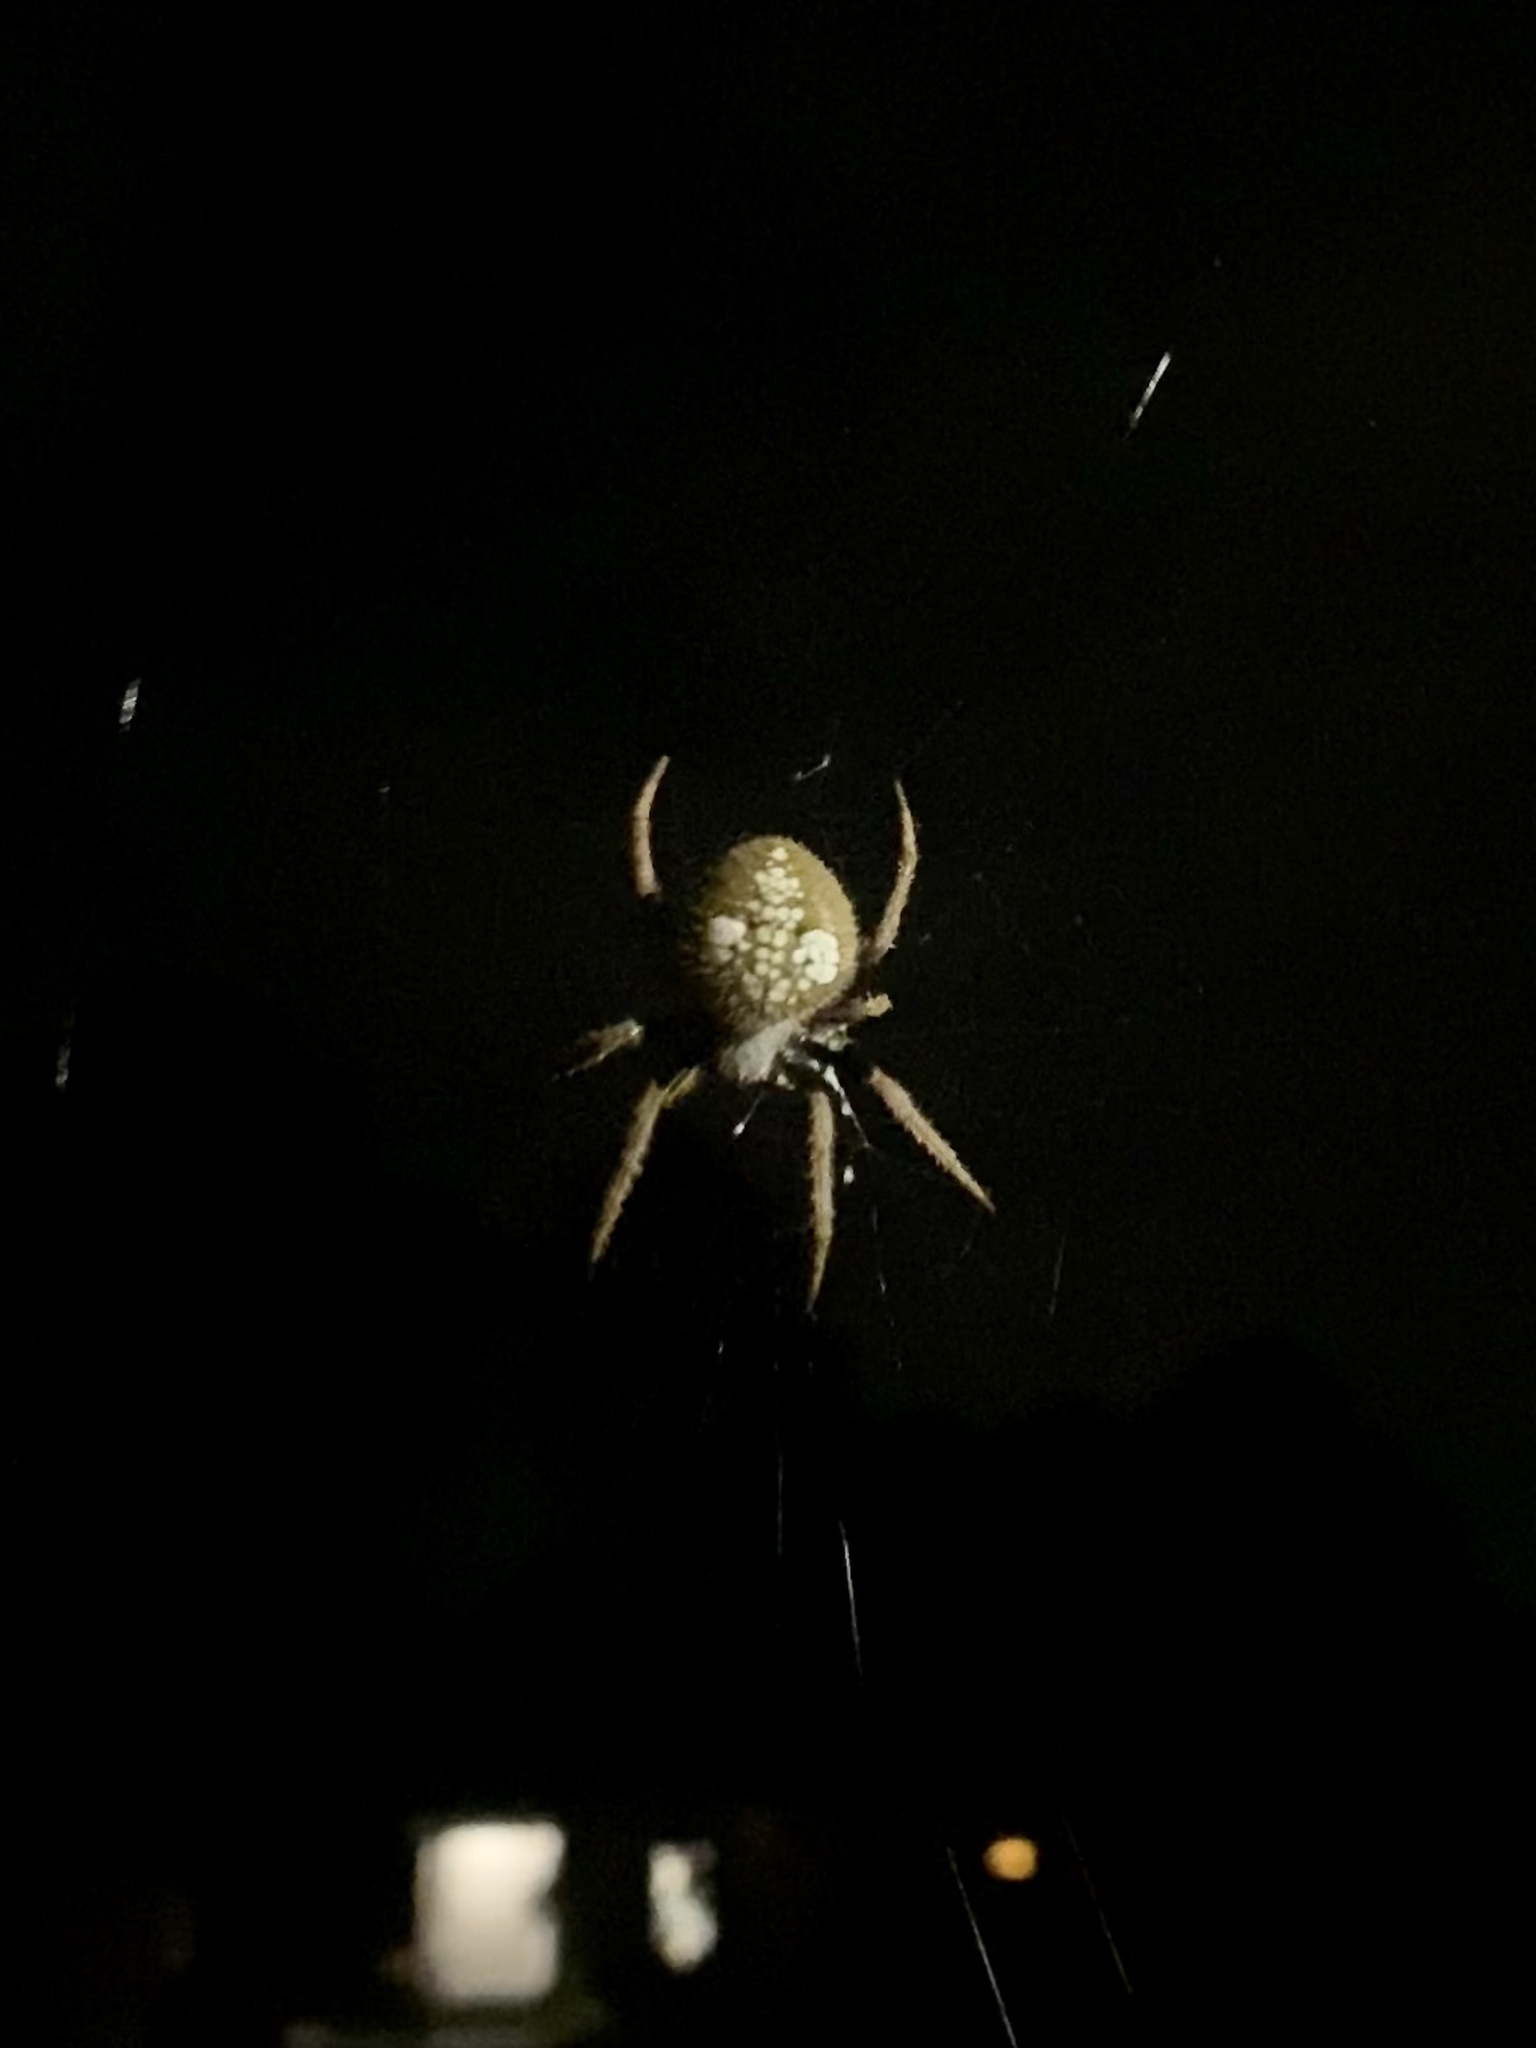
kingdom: Animalia
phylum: Arthropoda
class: Arachnida
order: Araneae
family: Araneidae
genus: Eriophora
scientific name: Eriophora ravilla
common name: Orb weavers
